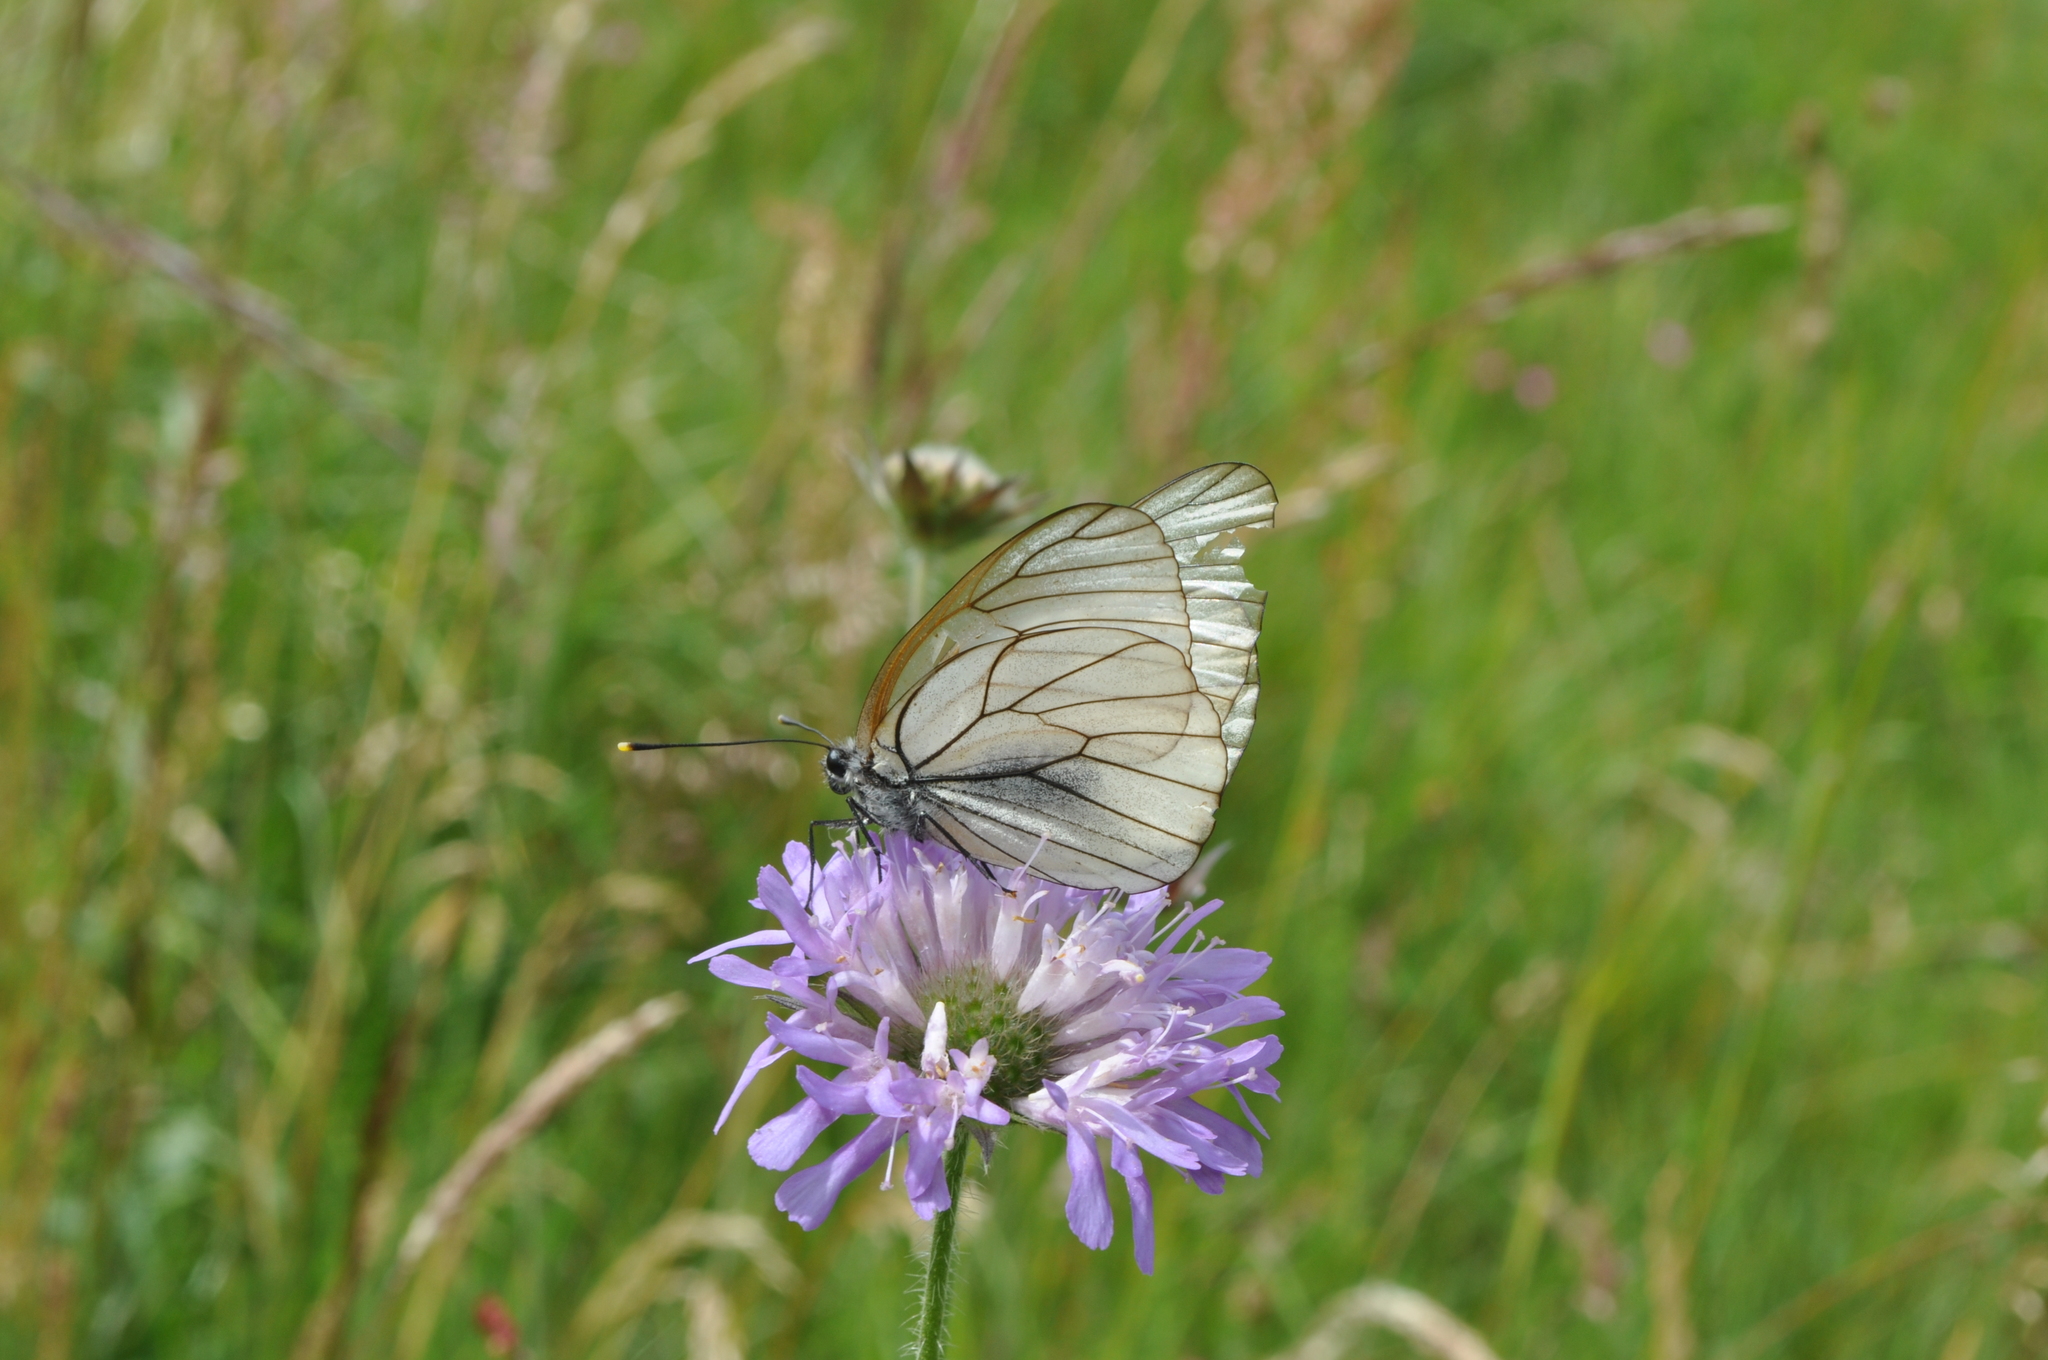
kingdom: Animalia
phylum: Arthropoda
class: Insecta
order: Lepidoptera
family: Pieridae
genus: Aporia
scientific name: Aporia crataegi
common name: Black-veined white
